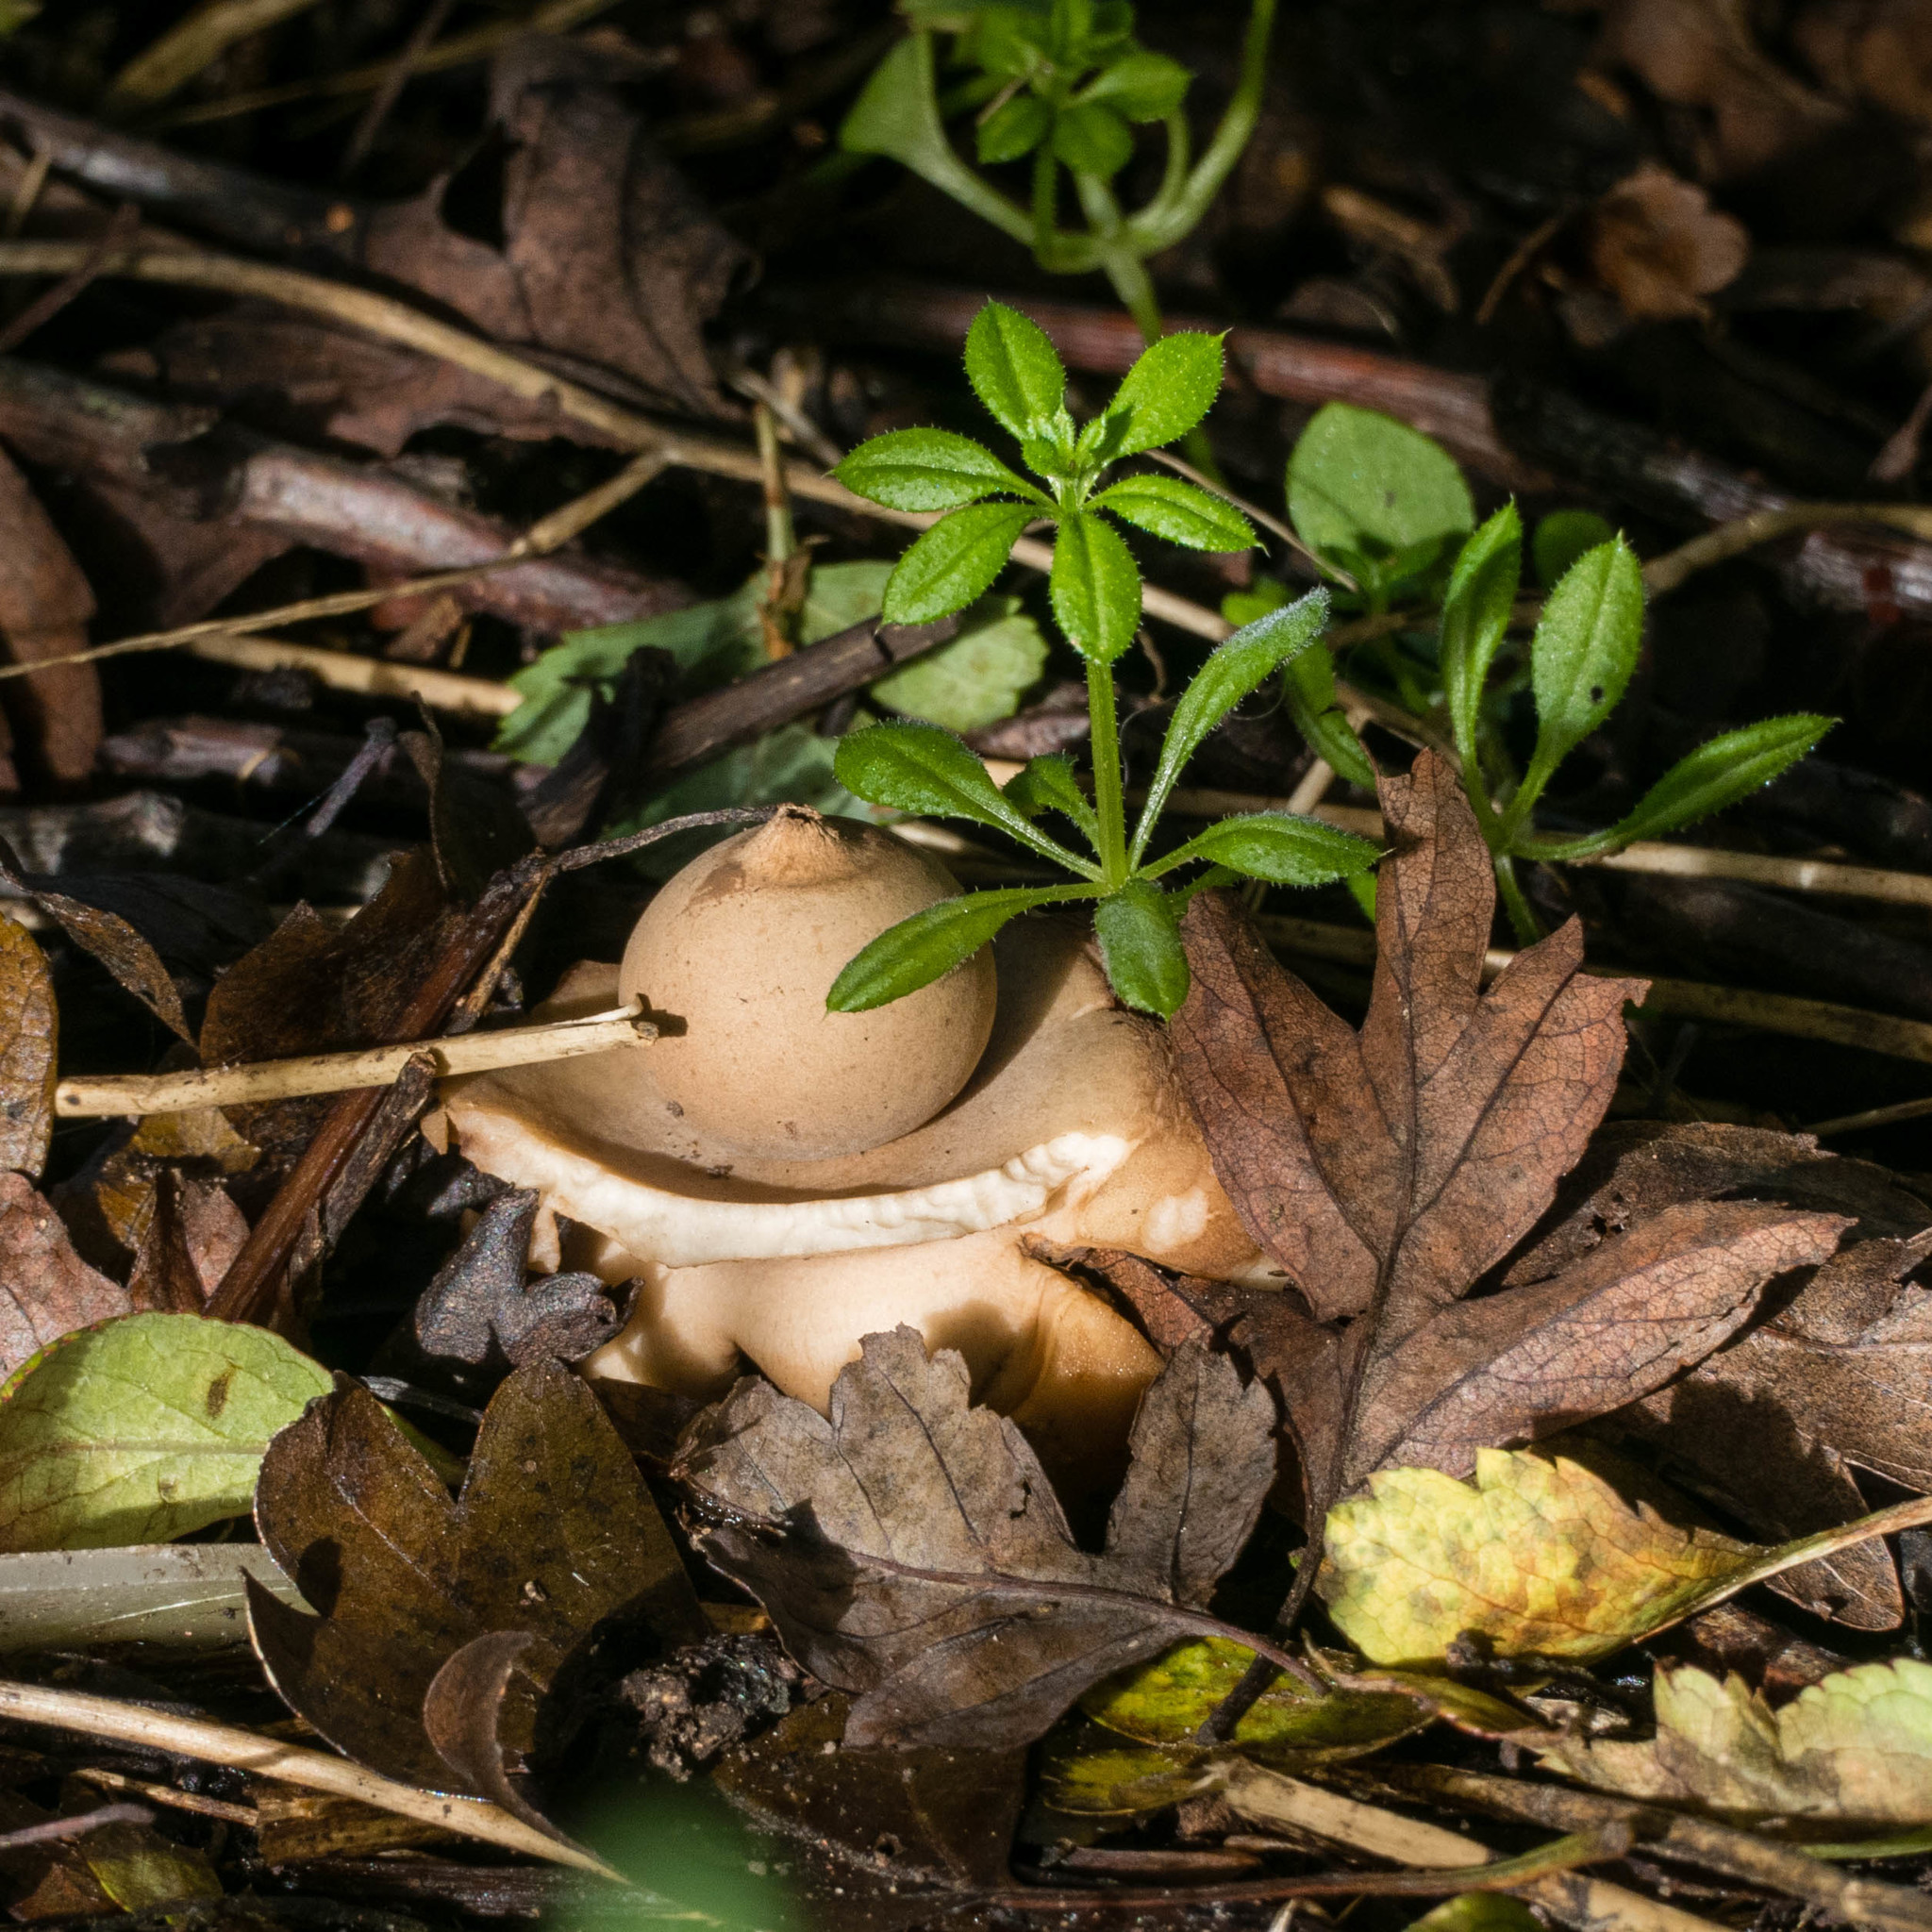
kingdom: Fungi
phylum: Basidiomycota
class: Agaricomycetes
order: Geastrales
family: Geastraceae
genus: Geastrum
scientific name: Geastrum triplex
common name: Collared earthstar
